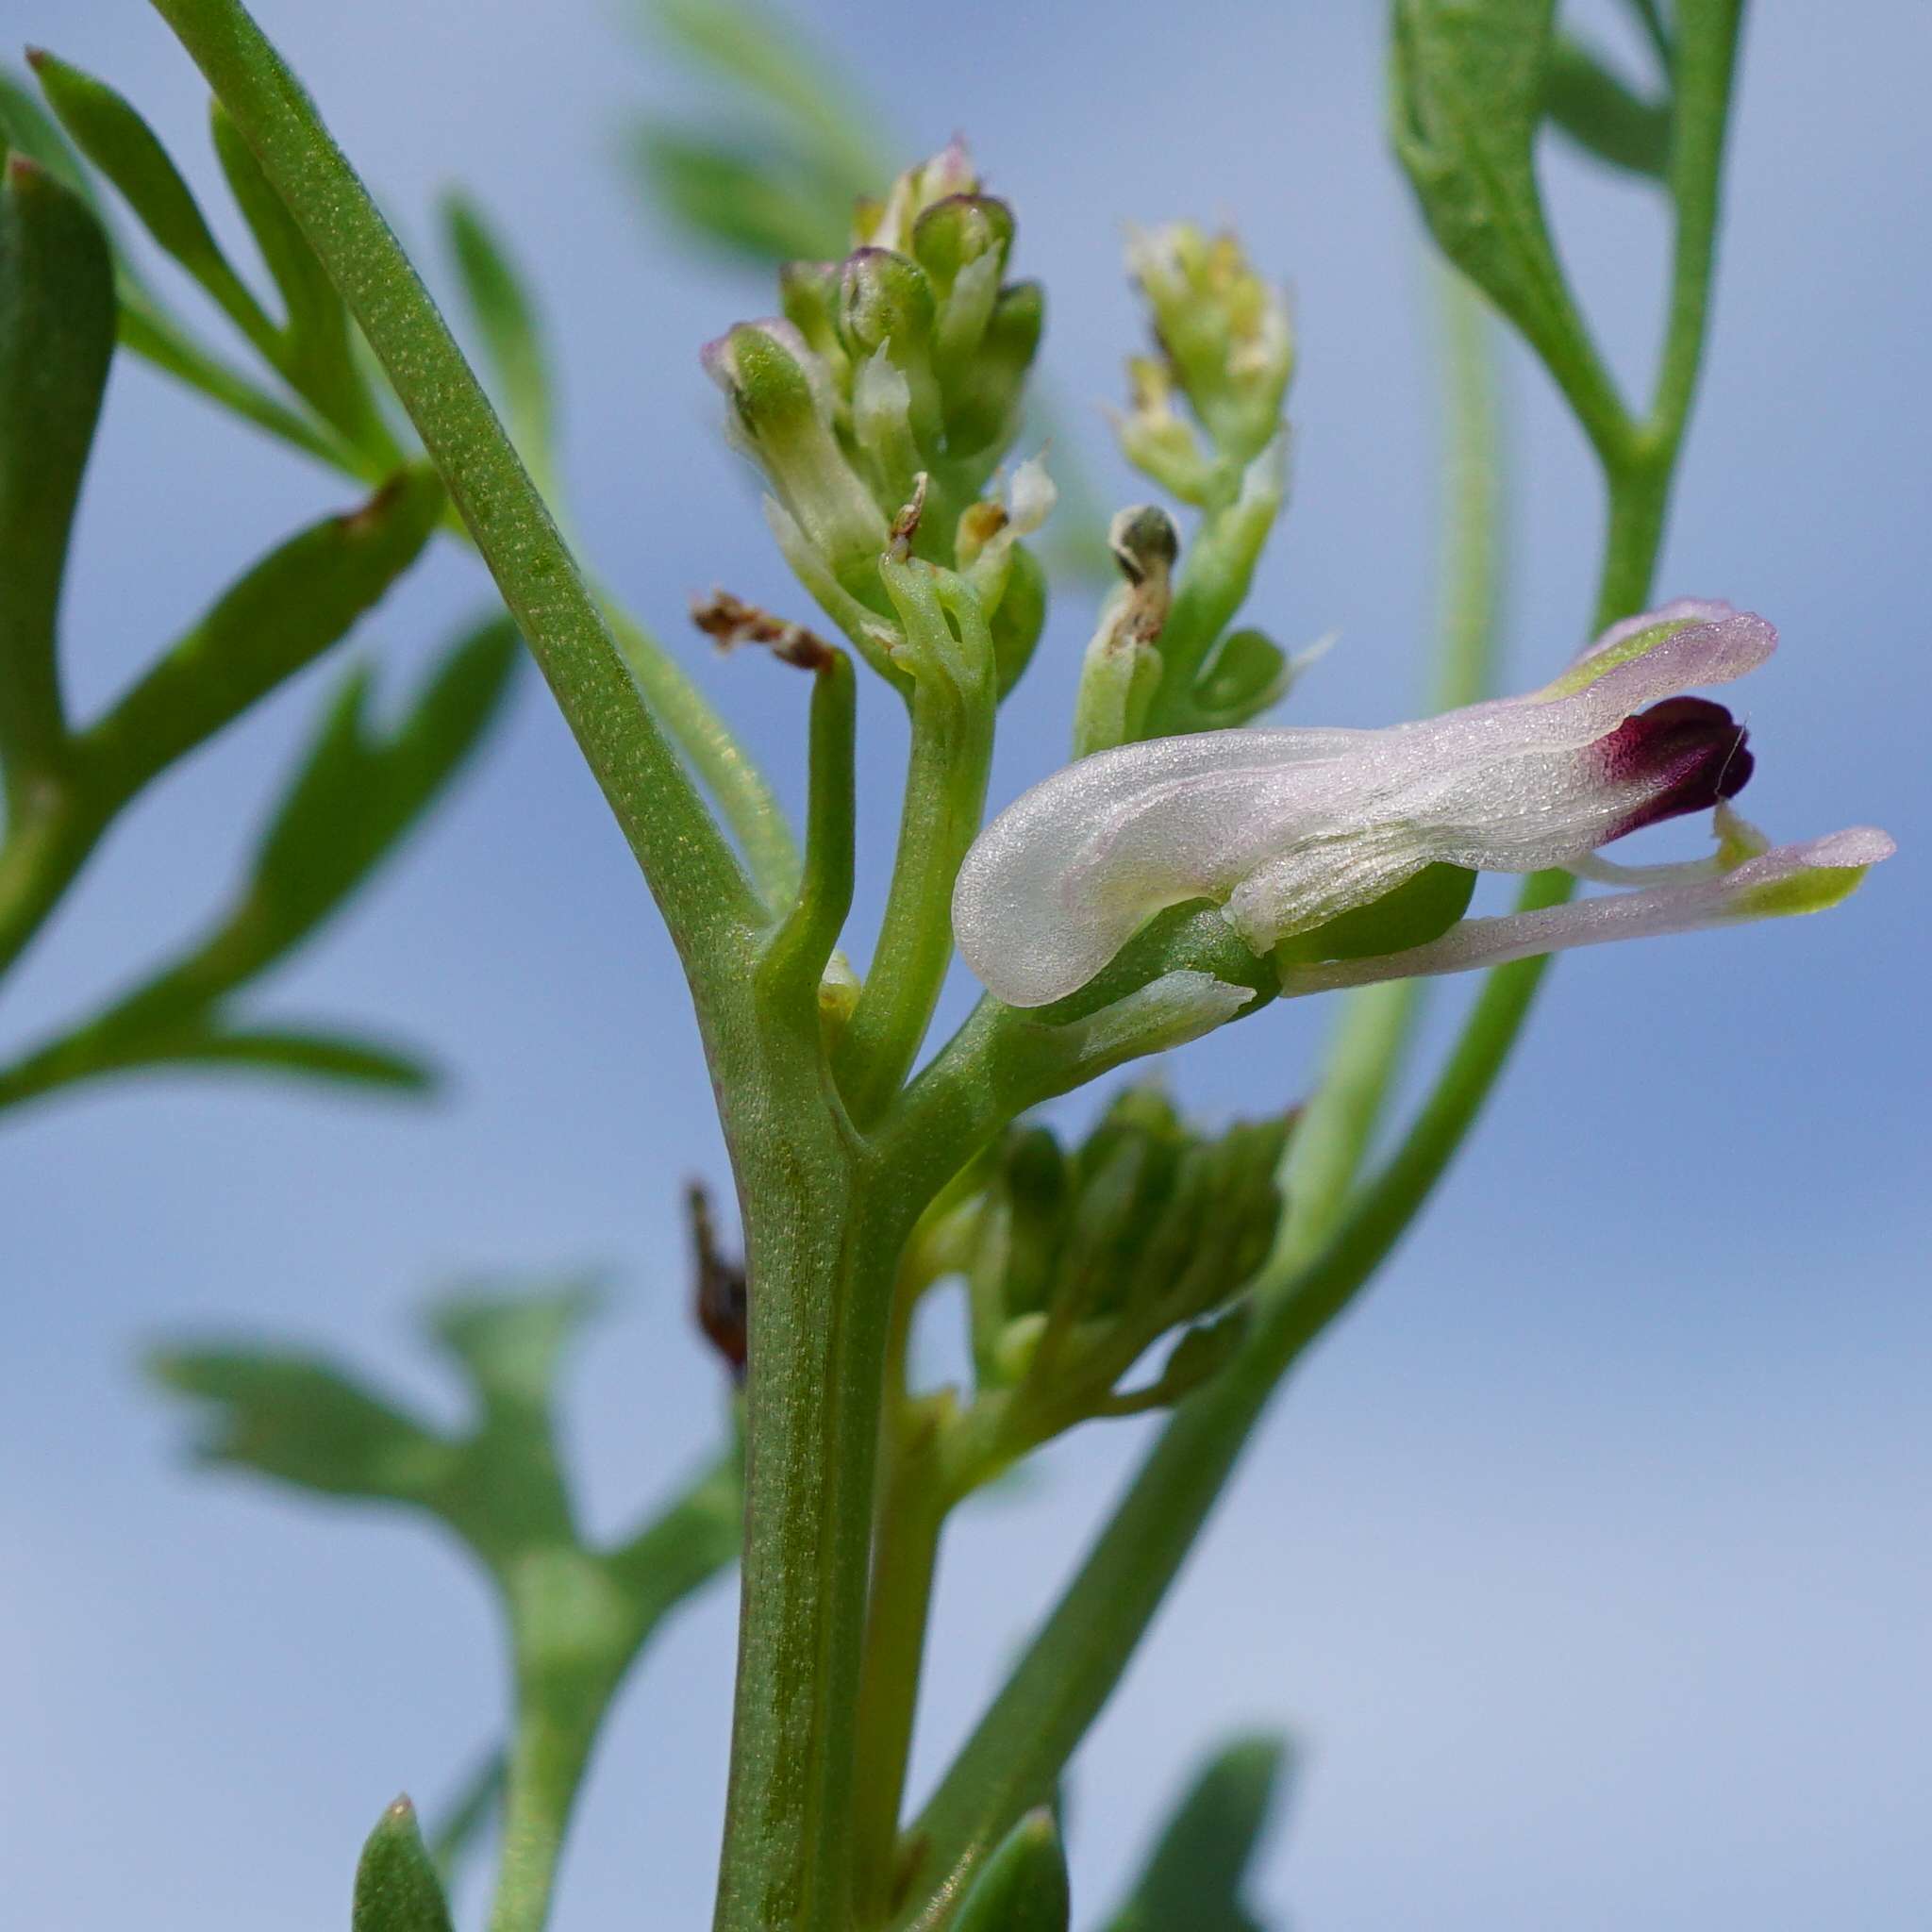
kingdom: Plantae
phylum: Tracheophyta
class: Magnoliopsida
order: Ranunculales
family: Papaveraceae
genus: Fumaria
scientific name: Fumaria vaillantii
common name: Few-flowered fumitory
